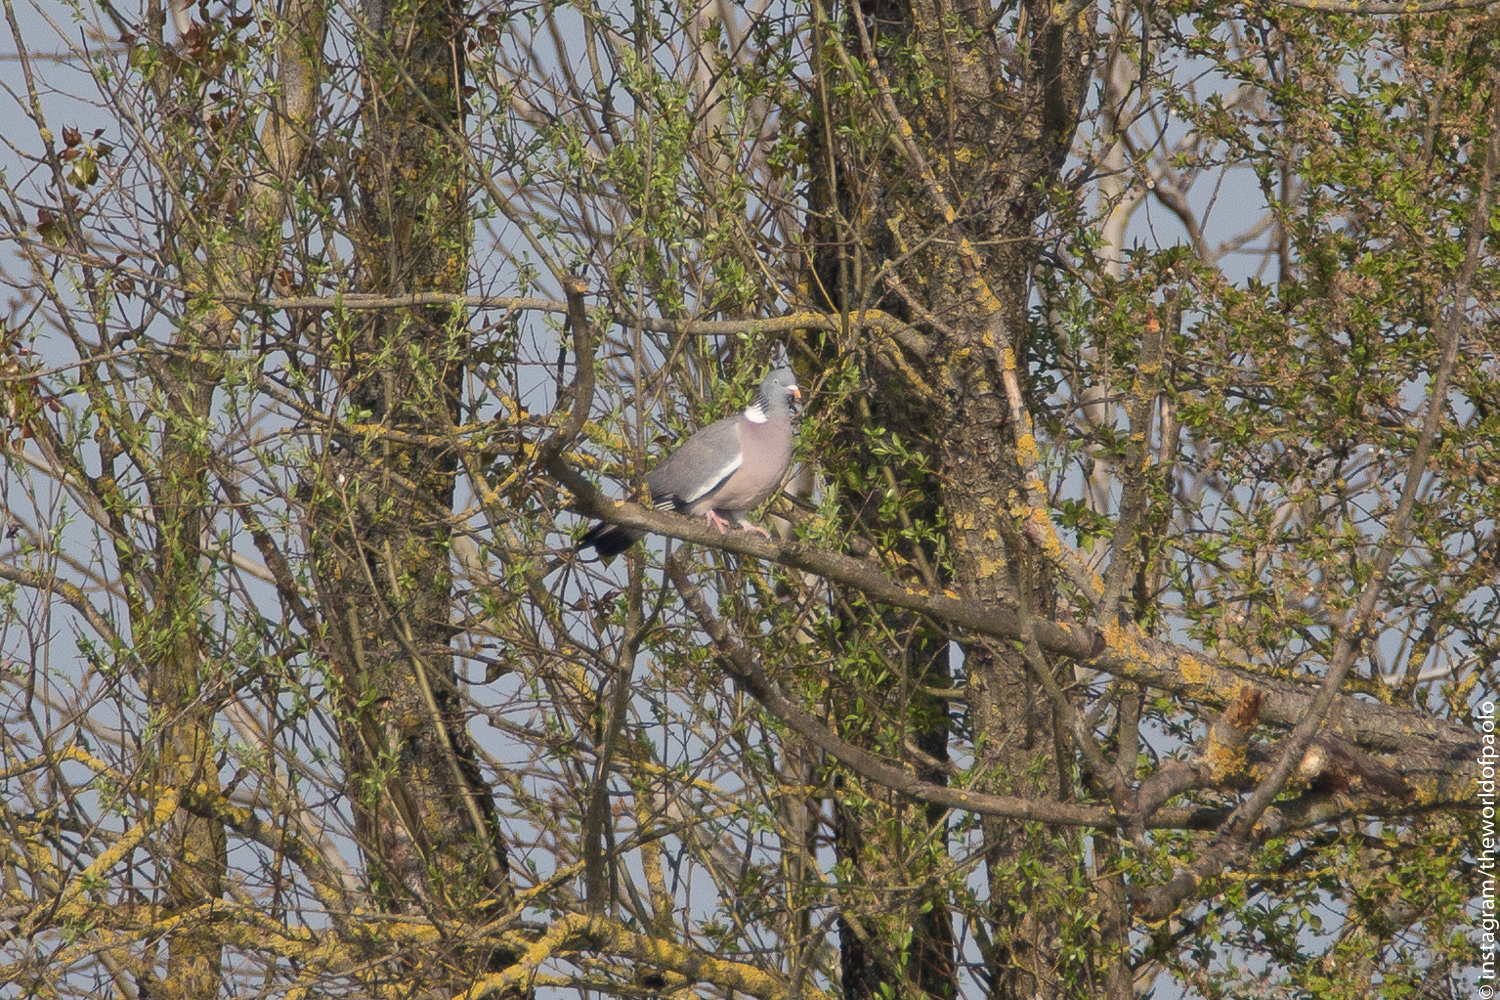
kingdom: Animalia
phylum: Chordata
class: Aves
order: Columbiformes
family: Columbidae
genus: Columba
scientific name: Columba palumbus
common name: Common wood pigeon
